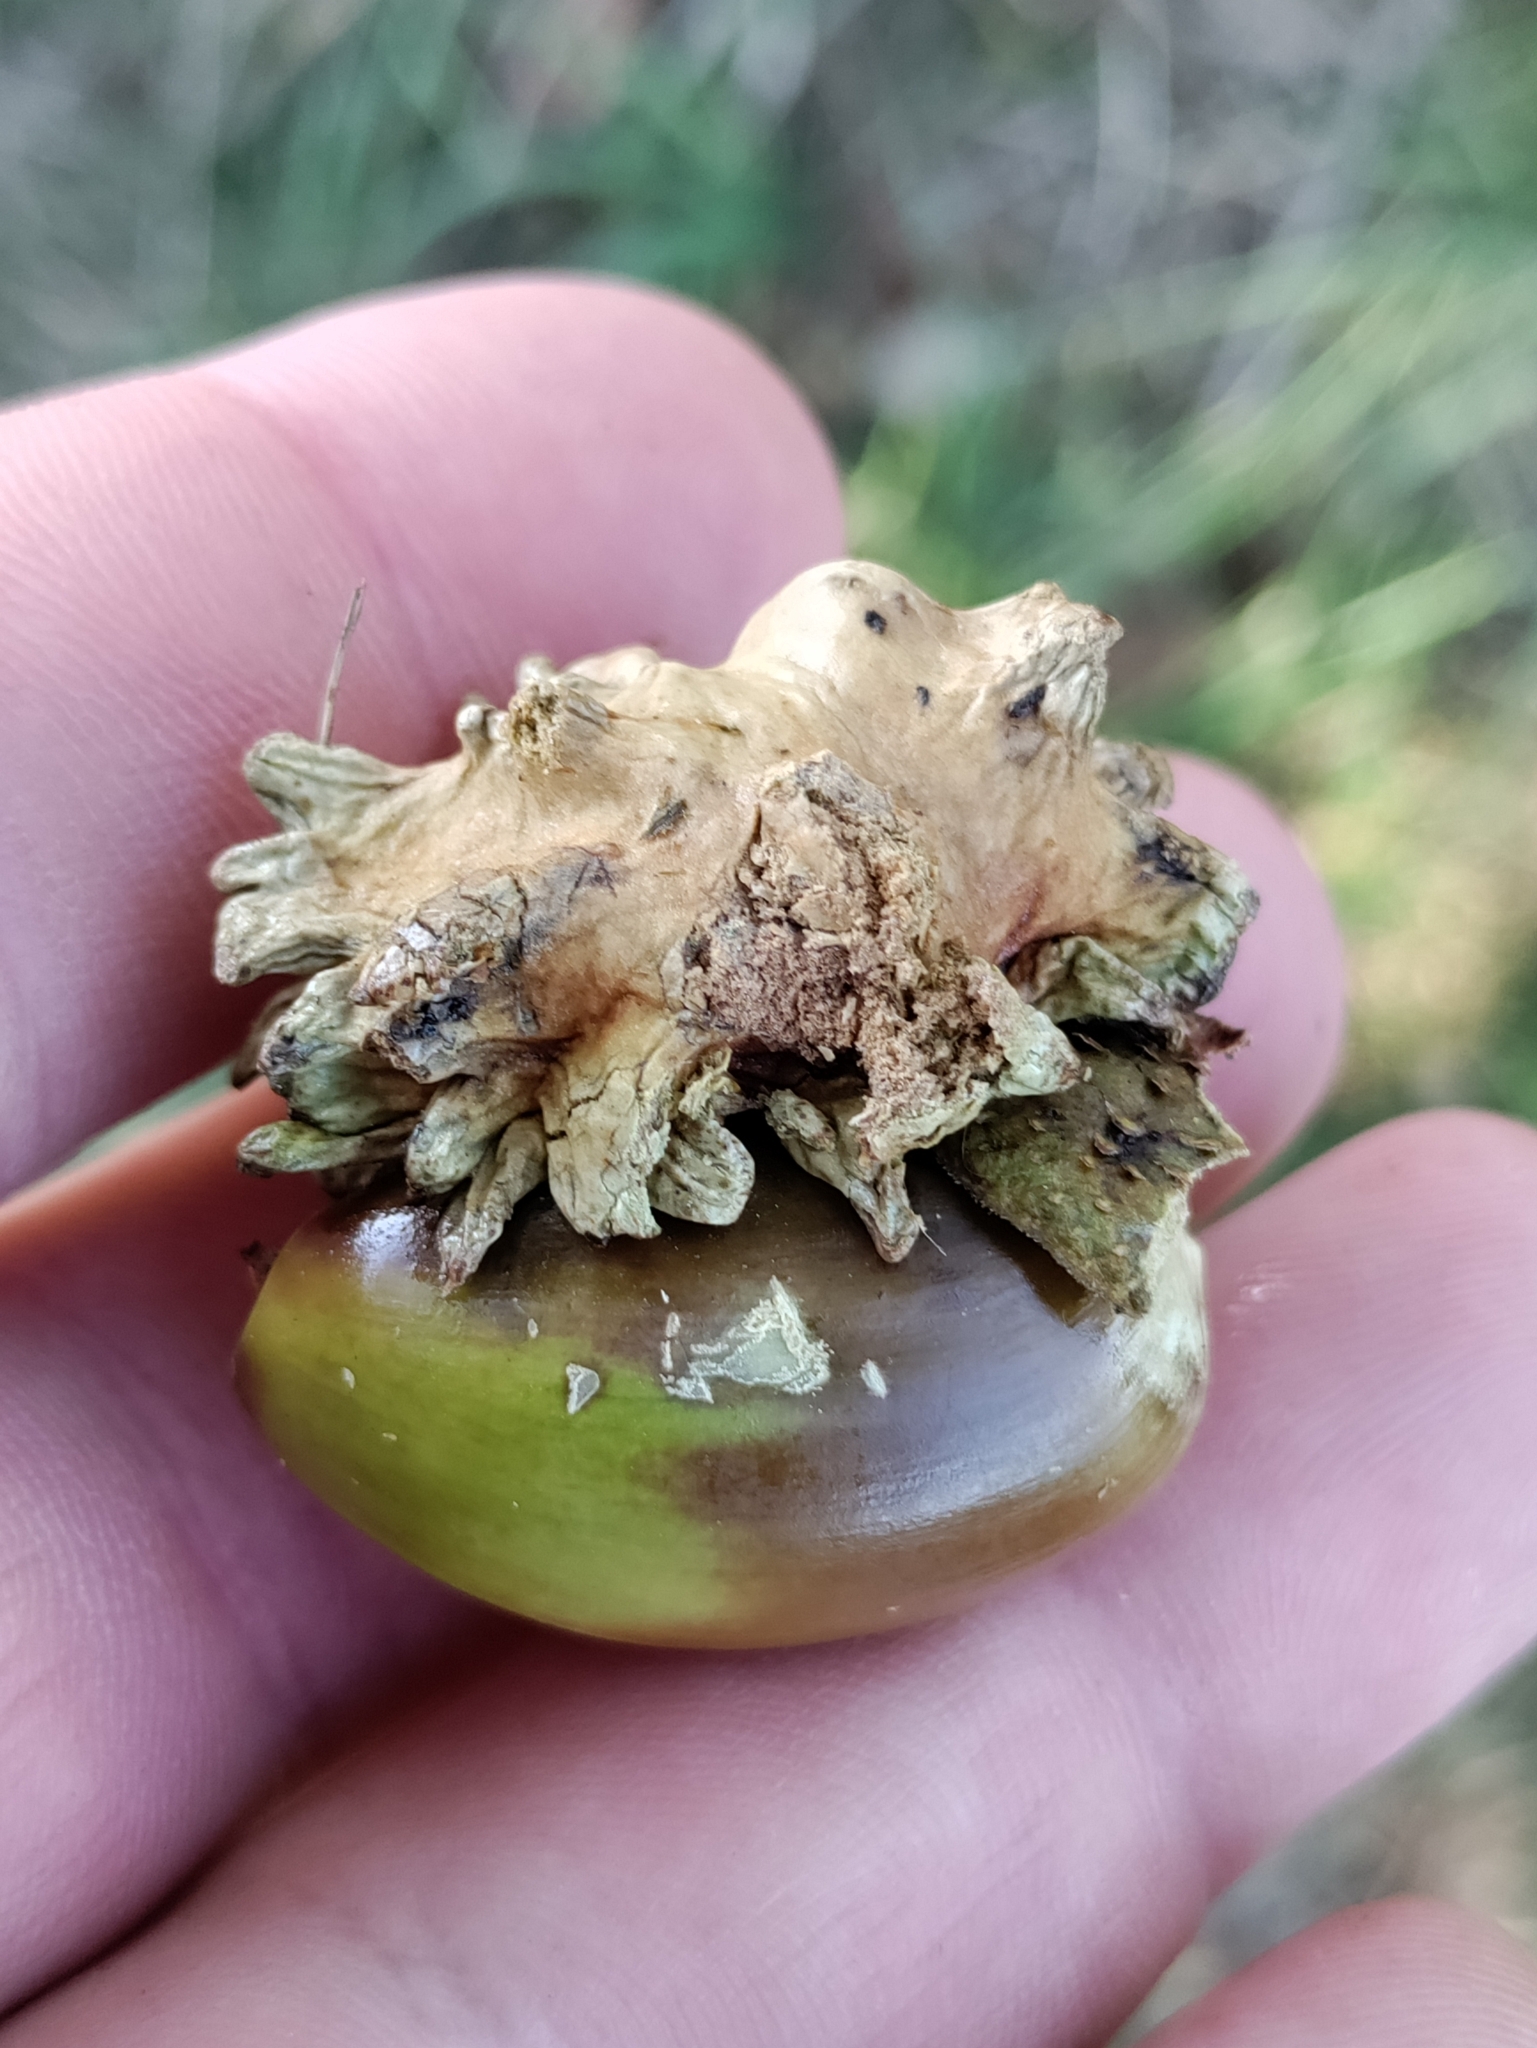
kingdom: Animalia
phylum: Arthropoda
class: Insecta
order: Hymenoptera
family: Cynipidae
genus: Andricus
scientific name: Andricus quercuscalicis
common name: Knopper gall
